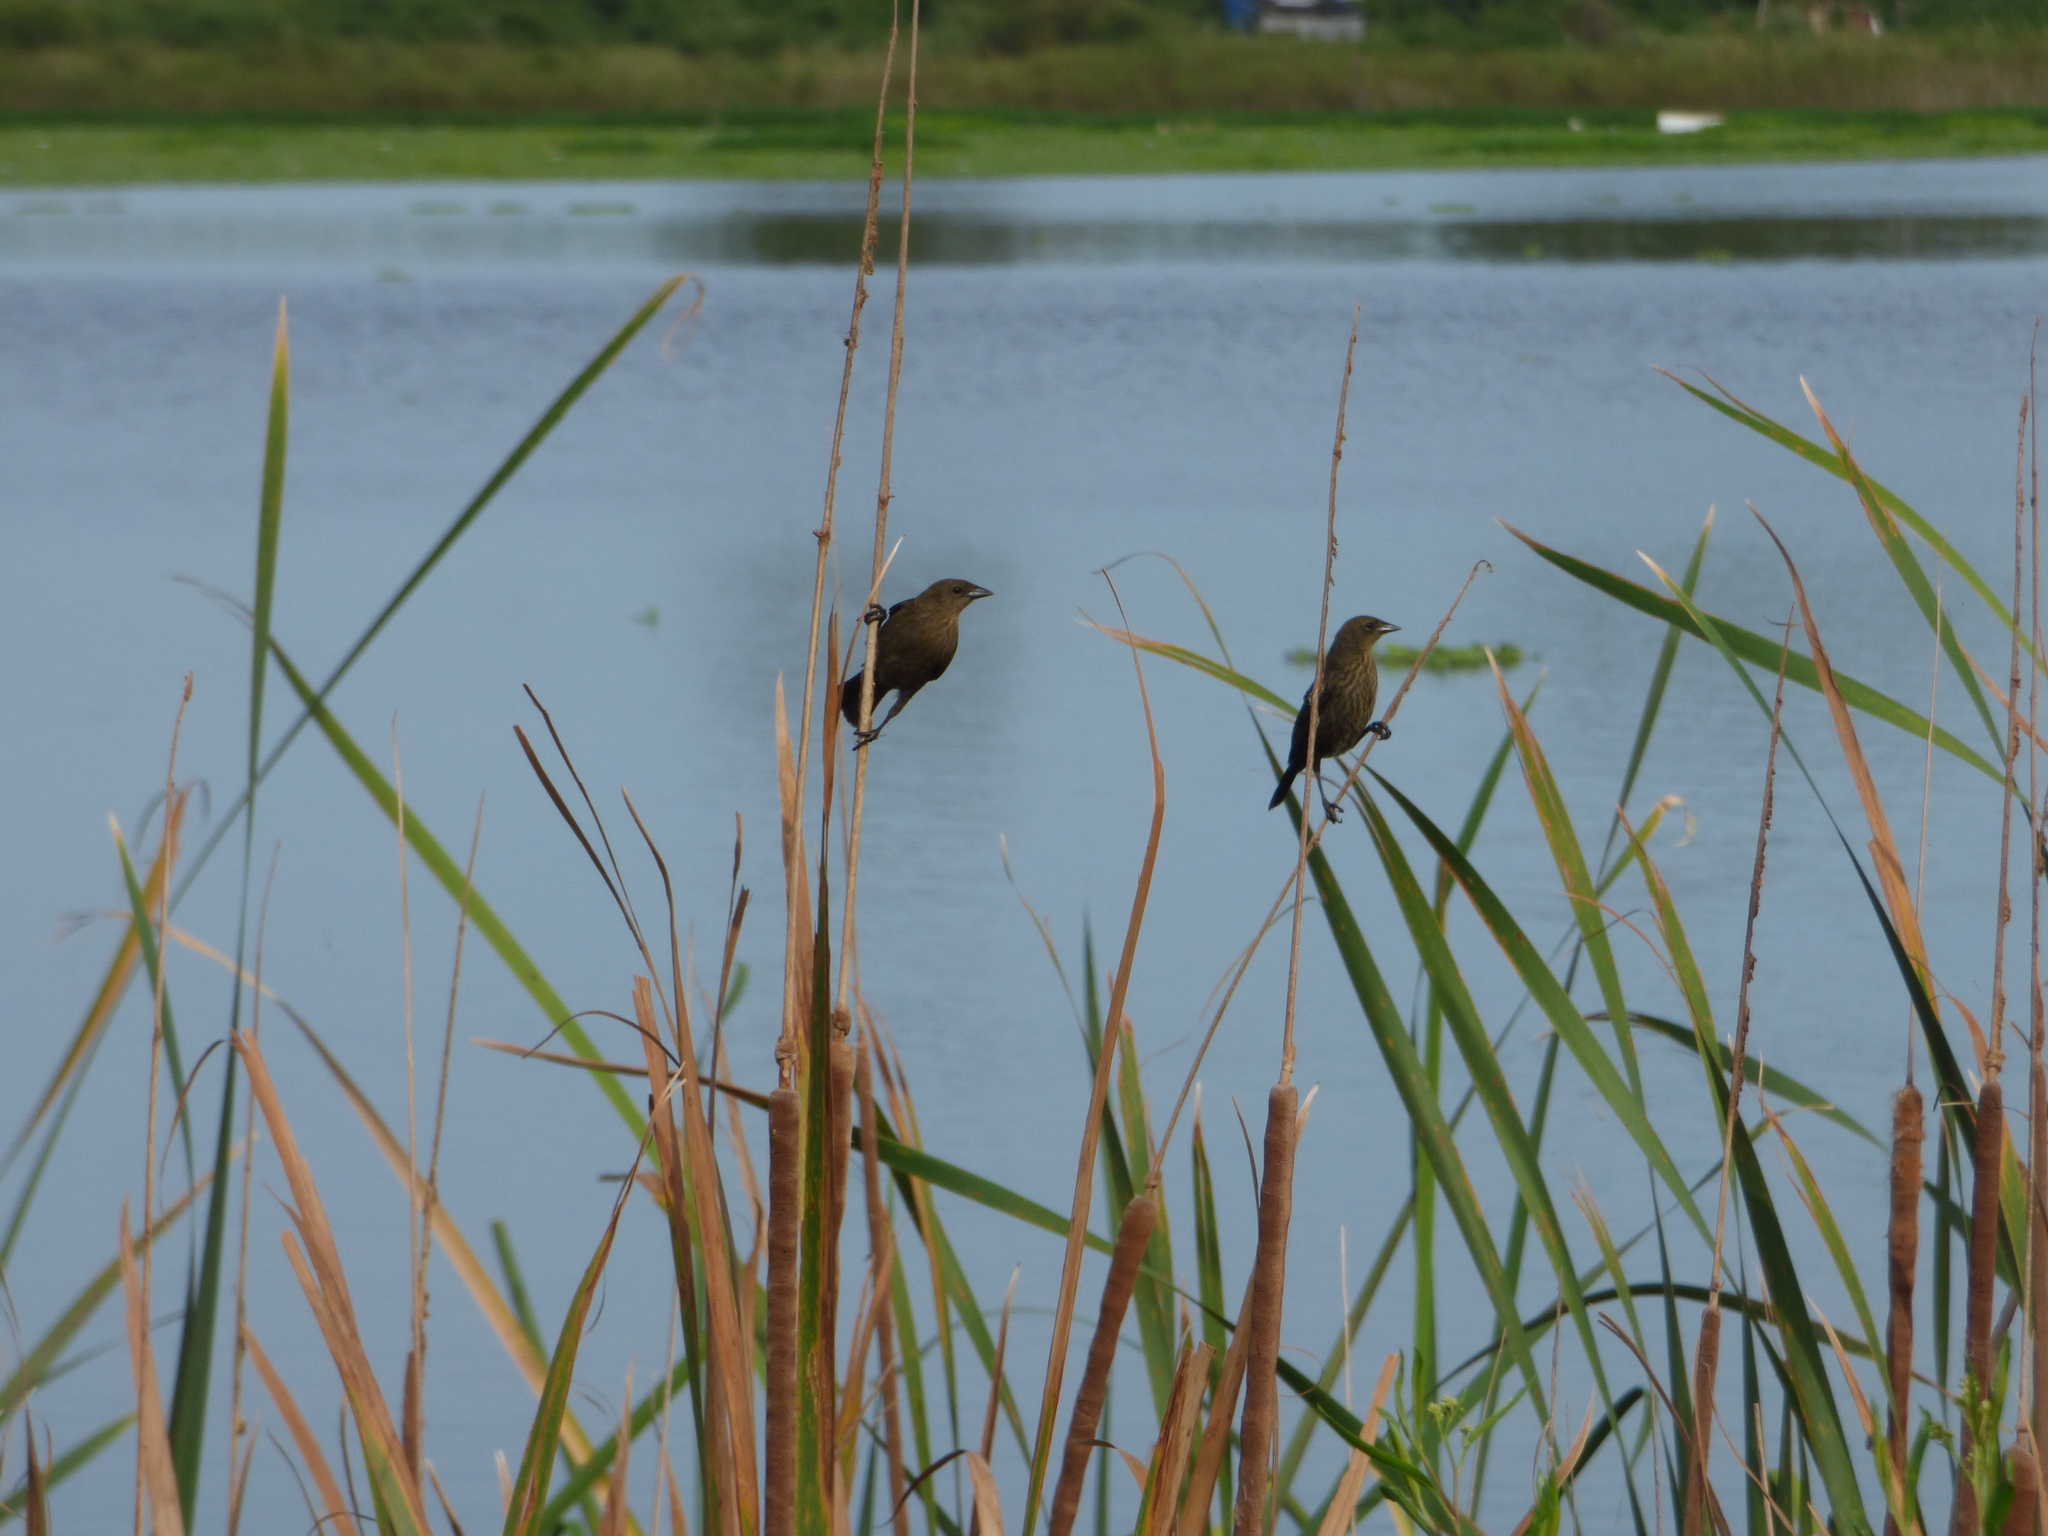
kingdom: Animalia
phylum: Chordata
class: Aves
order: Passeriformes
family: Icteridae
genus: Chrysomus
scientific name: Chrysomus ruficapillus
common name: Chestnut-capped blackbird
